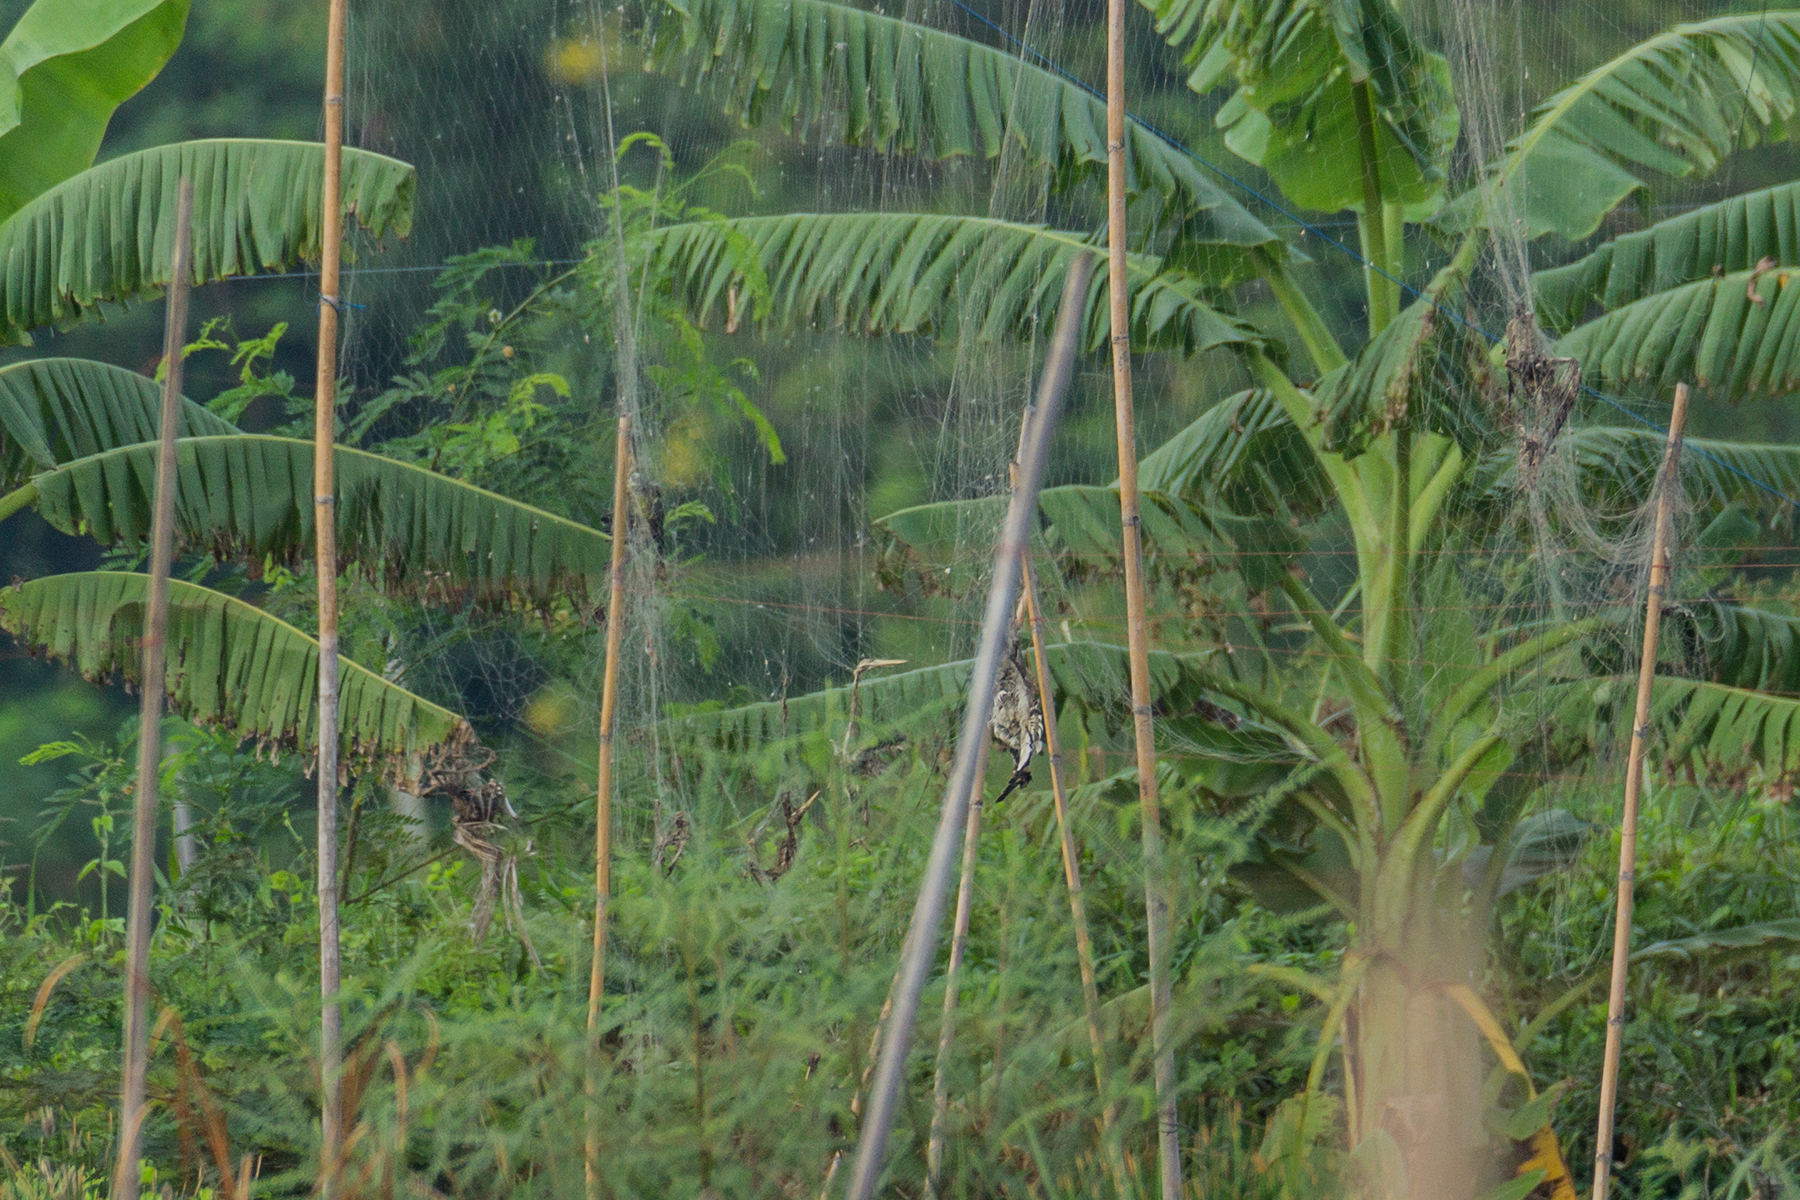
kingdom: Animalia
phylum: Chordata
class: Aves
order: Charadriiformes
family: Charadriidae
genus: Vanellus
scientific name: Vanellus indicus
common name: Red-wattled lapwing
